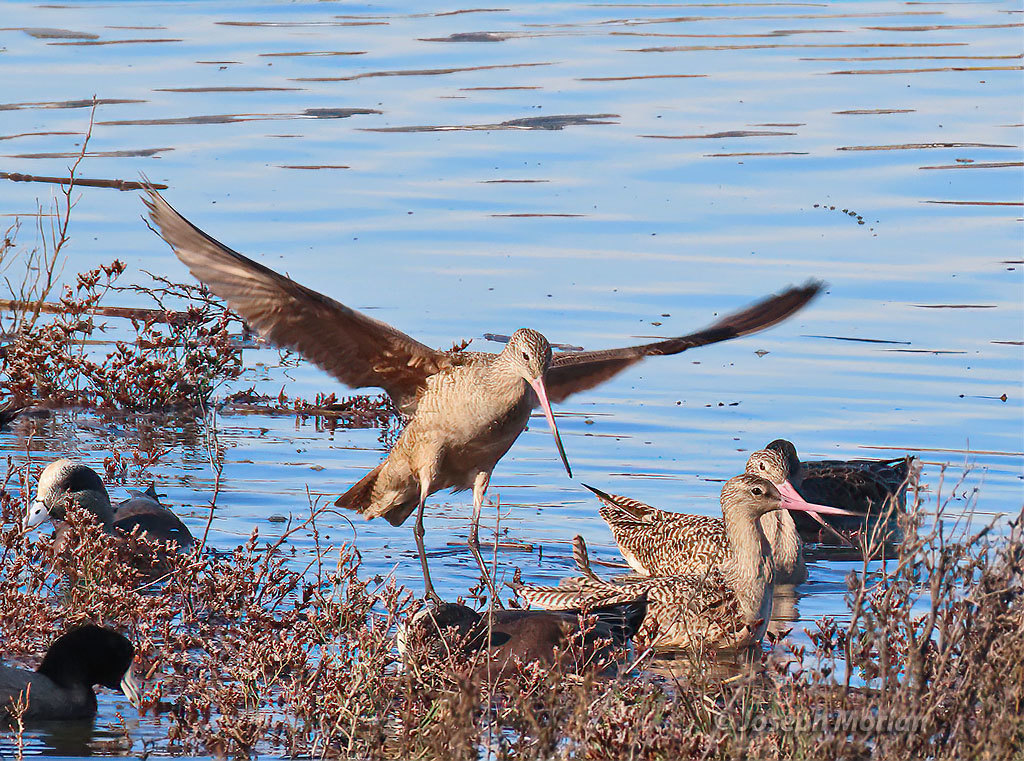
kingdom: Animalia
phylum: Chordata
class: Aves
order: Charadriiformes
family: Scolopacidae
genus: Limosa
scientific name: Limosa fedoa
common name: Marbled godwit
